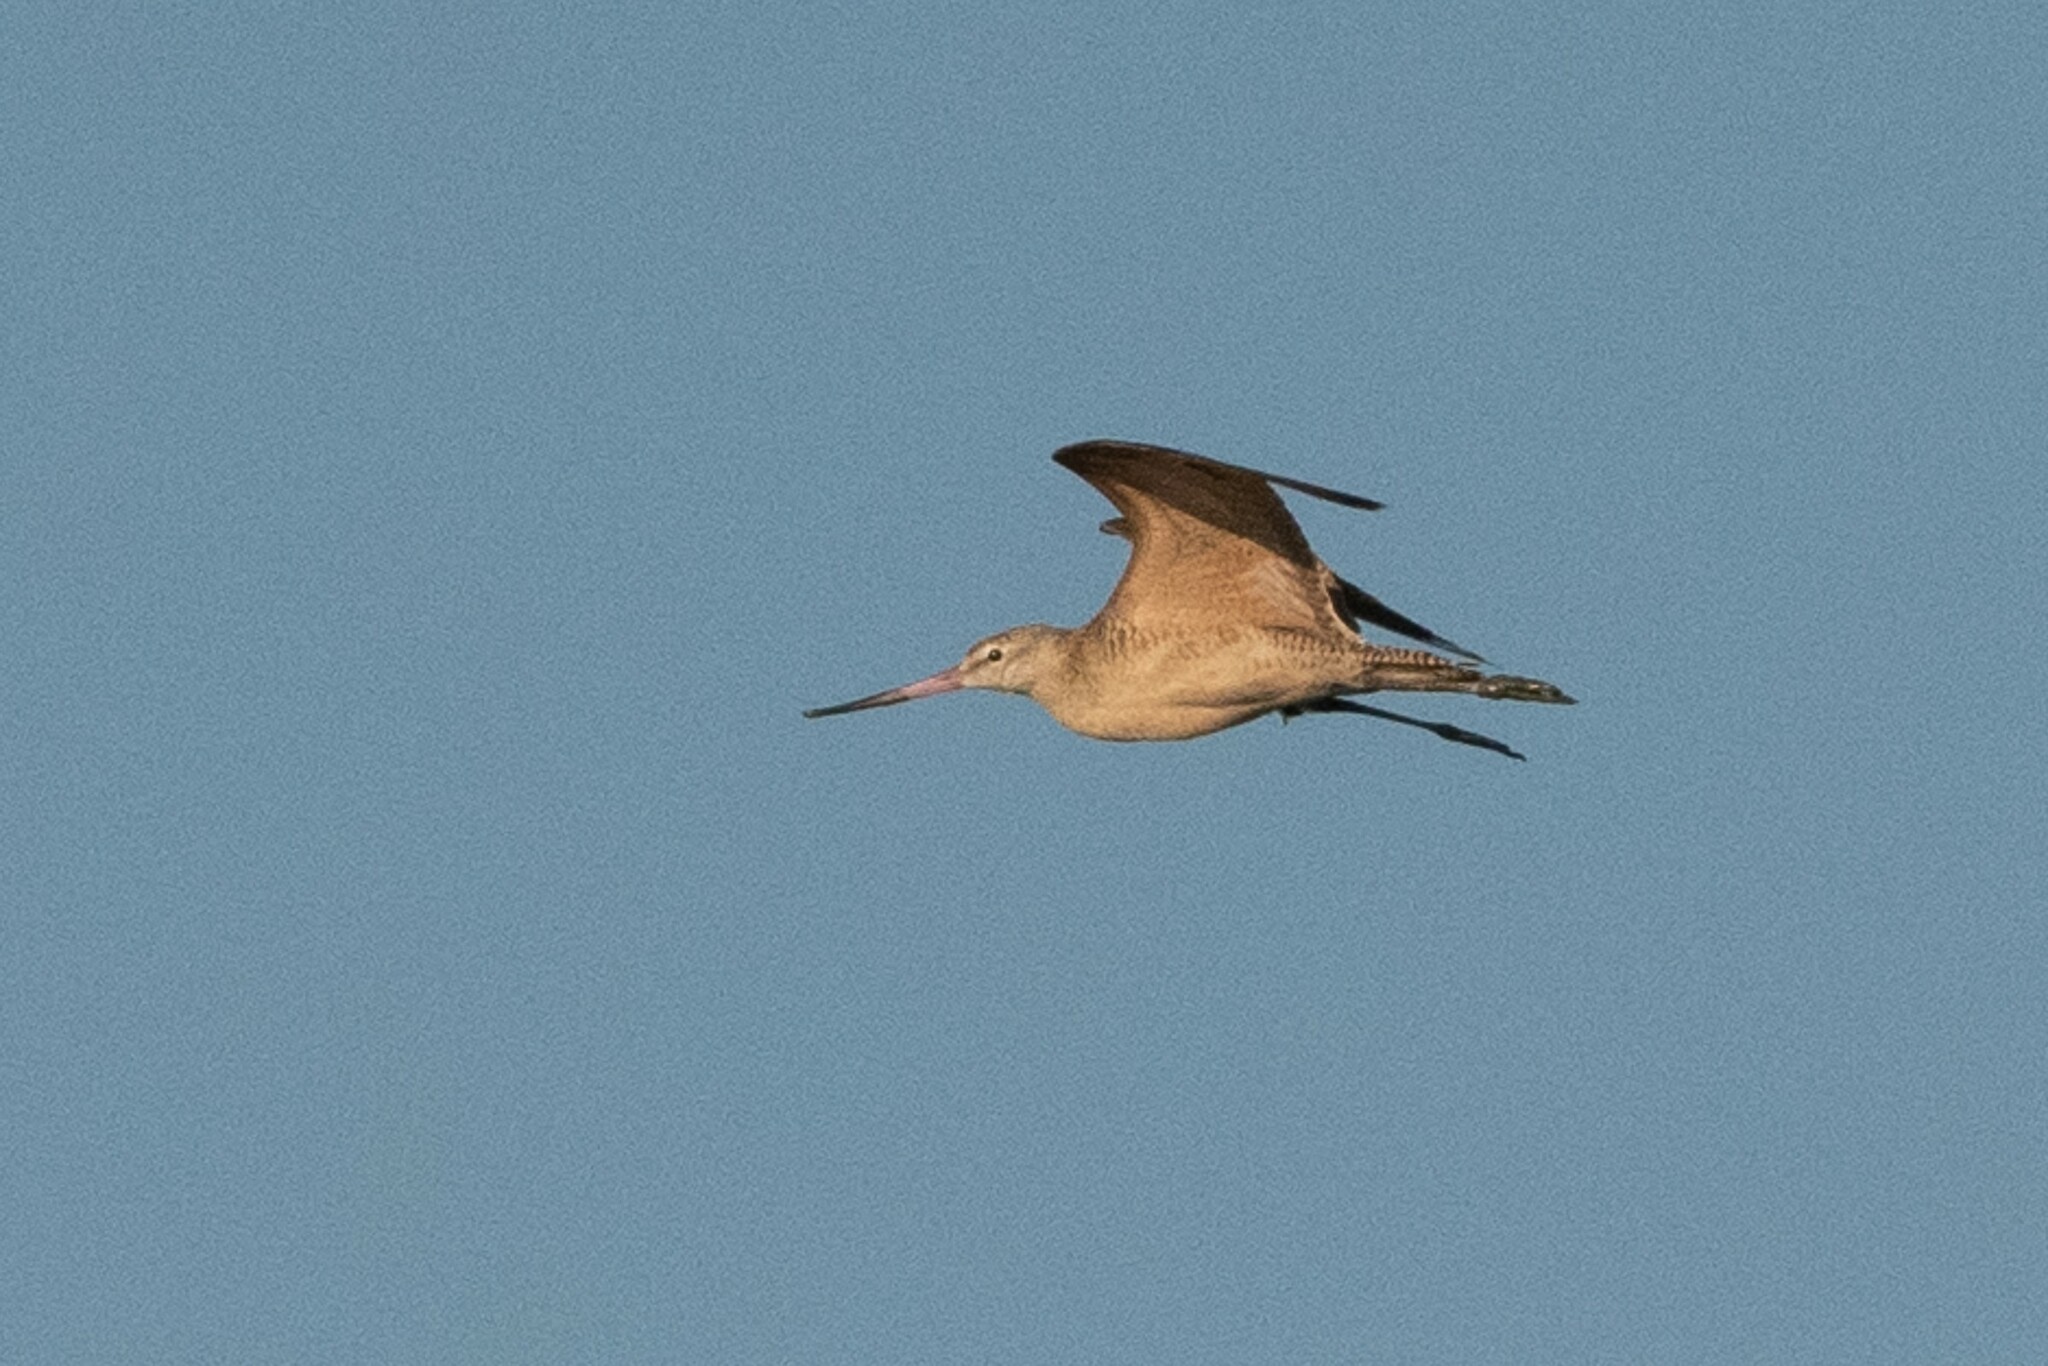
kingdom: Animalia
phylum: Chordata
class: Aves
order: Charadriiformes
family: Scolopacidae
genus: Limosa
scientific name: Limosa fedoa
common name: Marbled godwit
